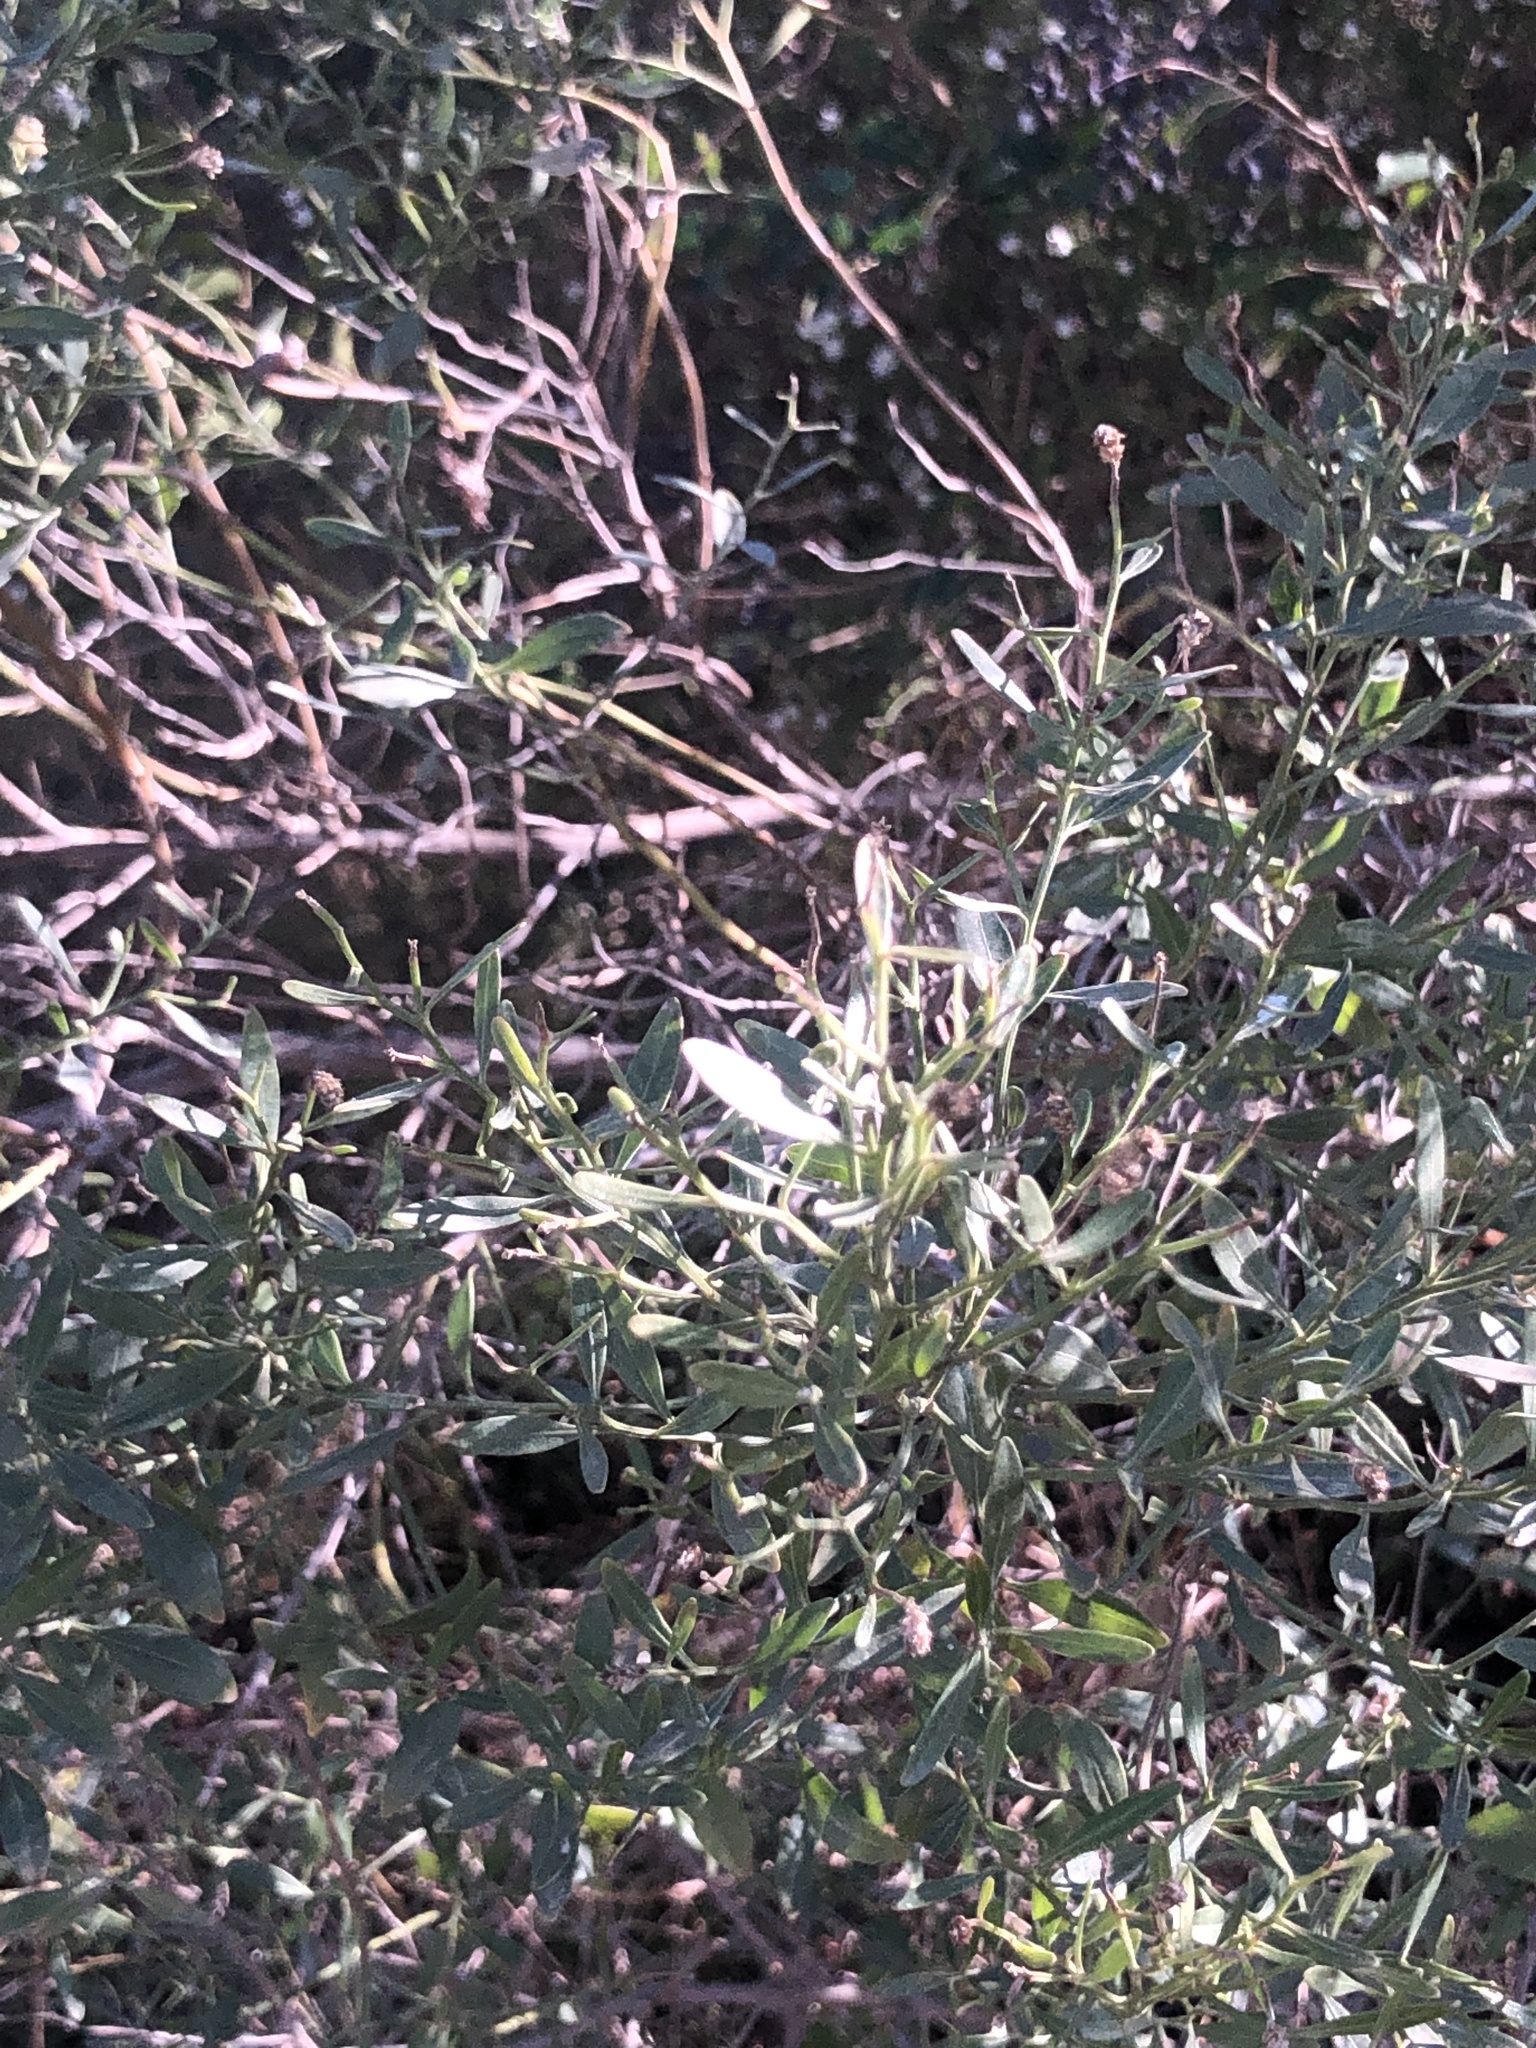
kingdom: Plantae
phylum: Tracheophyta
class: Magnoliopsida
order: Asterales
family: Asteraceae
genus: Baccharis
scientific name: Baccharis halimifolia
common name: Eastern baccharis
